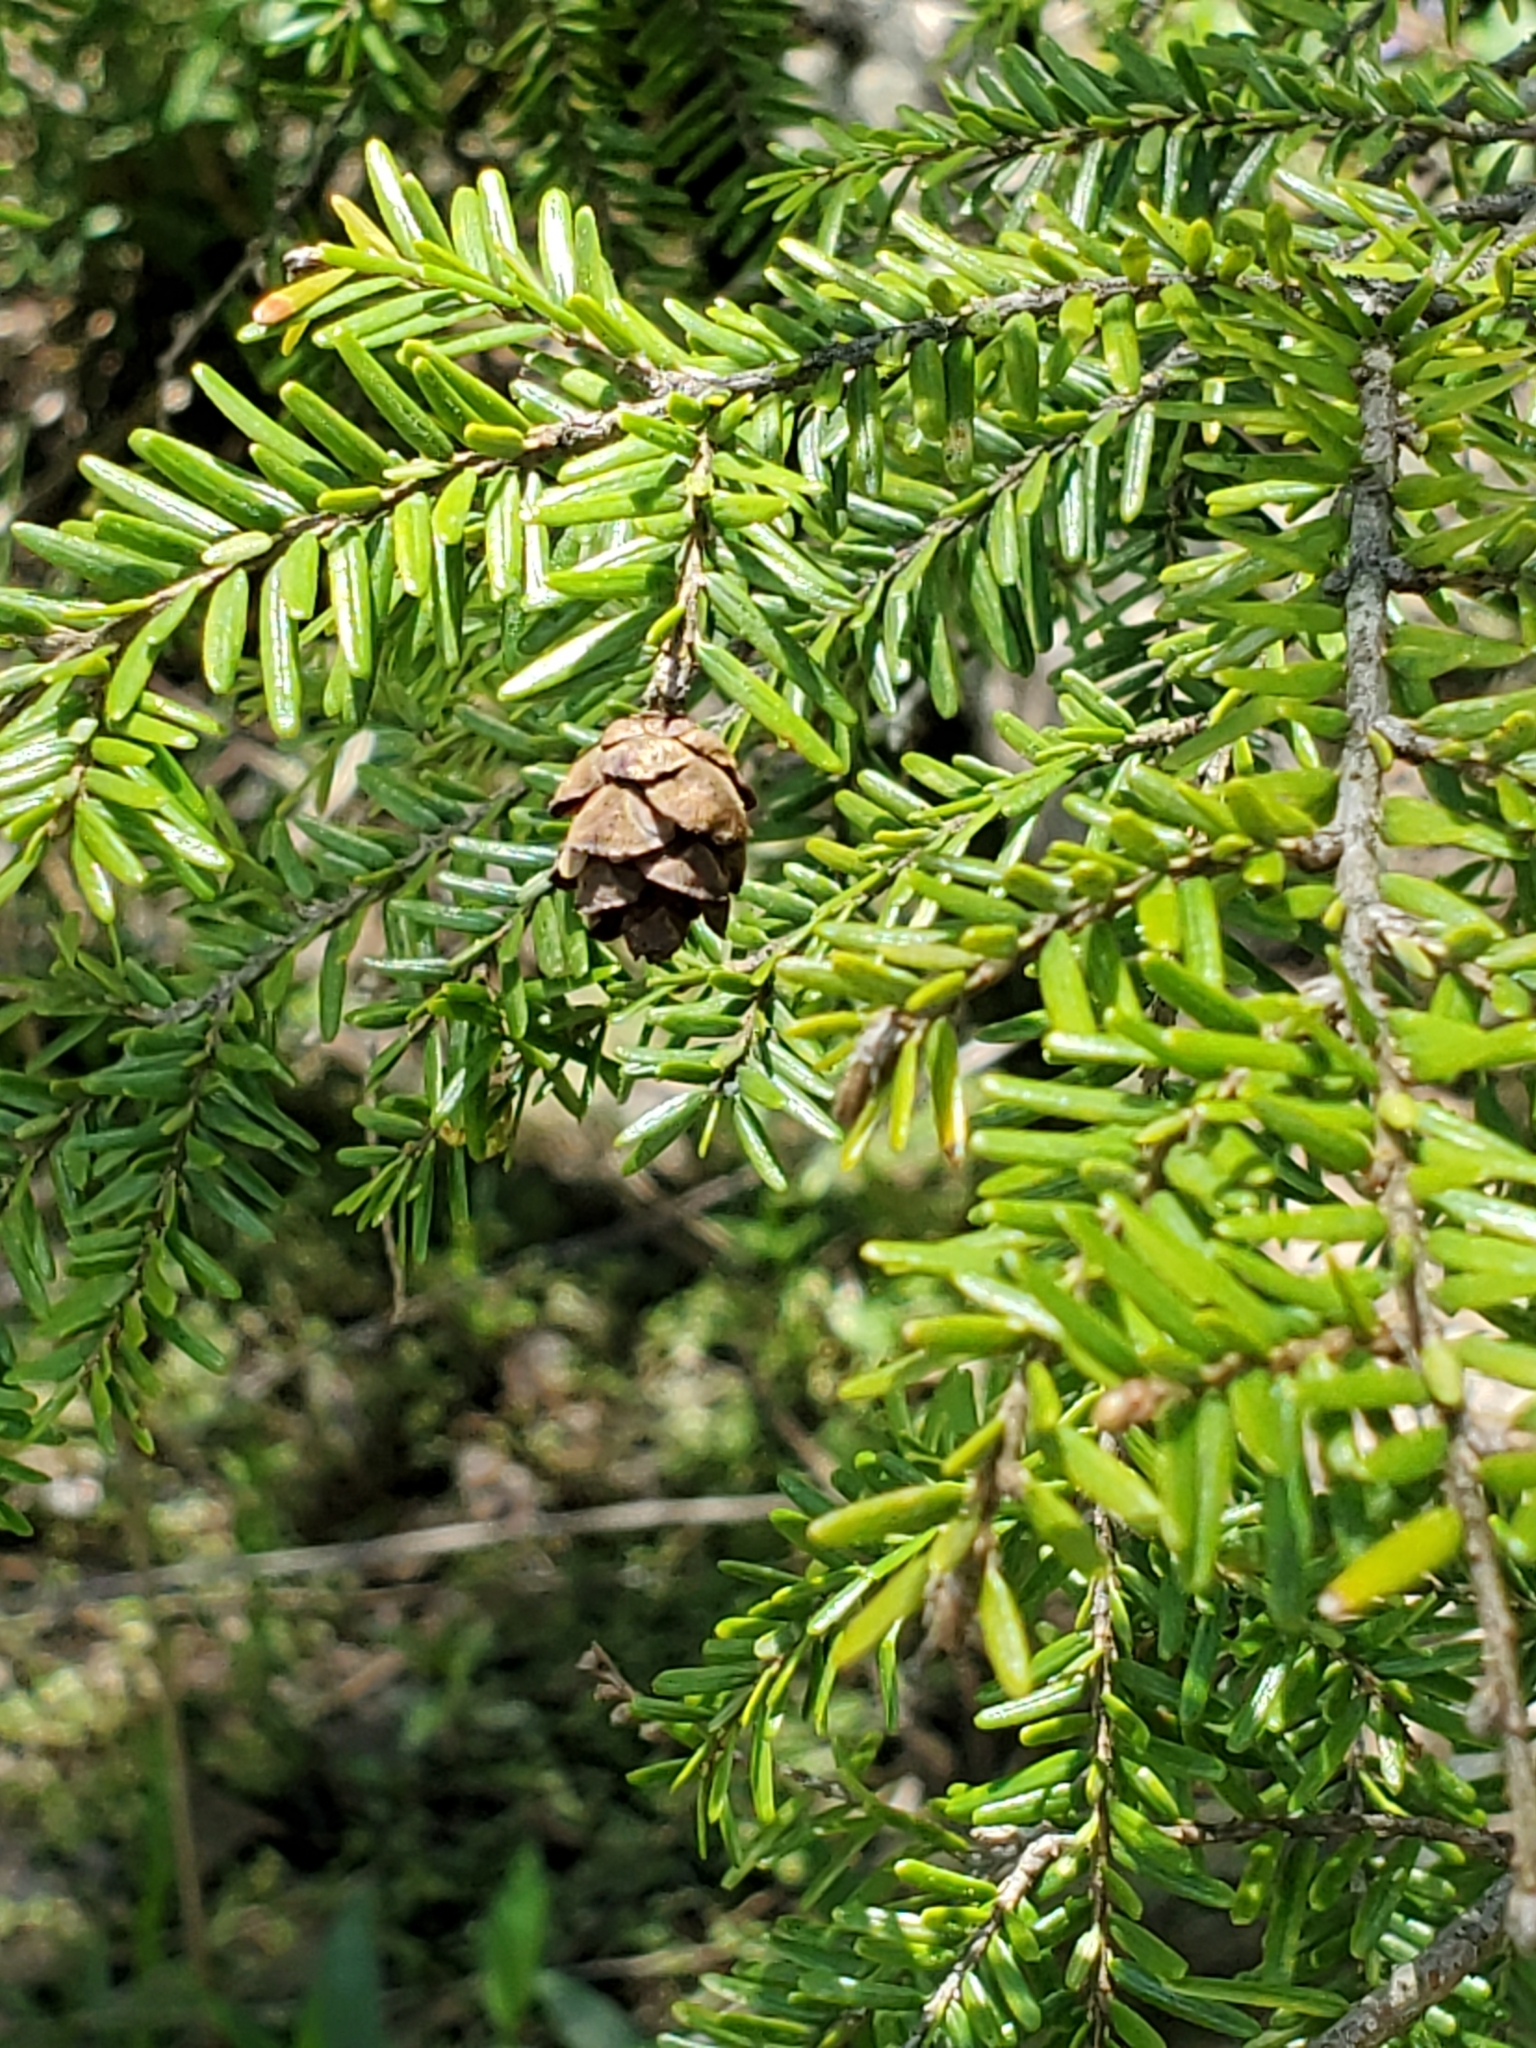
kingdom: Plantae
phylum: Tracheophyta
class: Pinopsida
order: Pinales
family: Pinaceae
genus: Tsuga
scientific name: Tsuga canadensis
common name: Eastern hemlock
